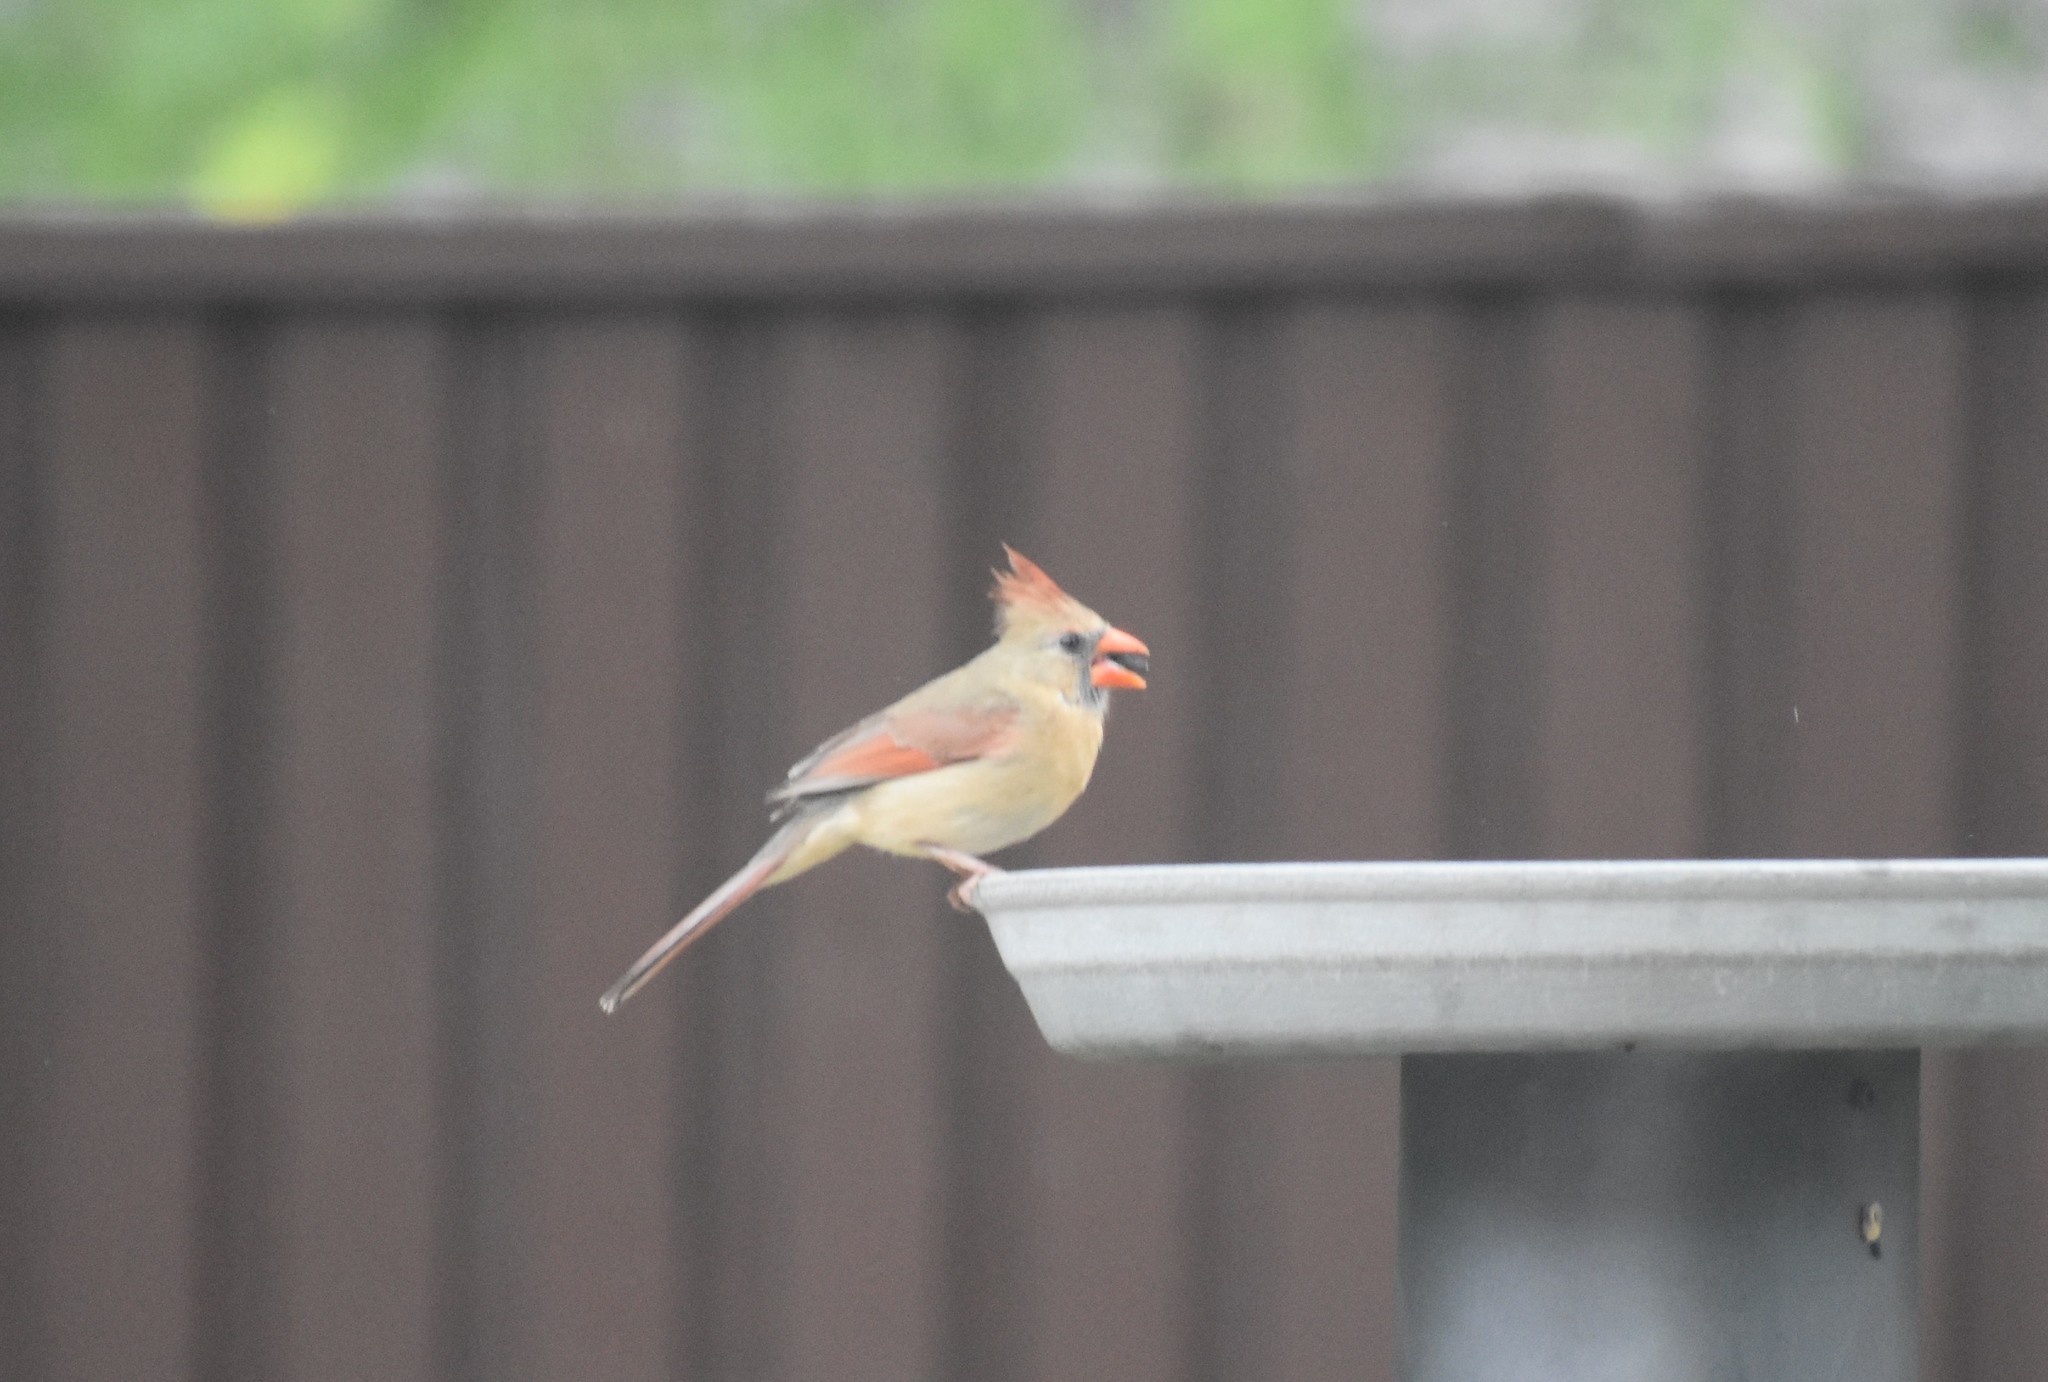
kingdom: Animalia
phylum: Chordata
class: Aves
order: Passeriformes
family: Cardinalidae
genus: Cardinalis
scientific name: Cardinalis cardinalis
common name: Northern cardinal
